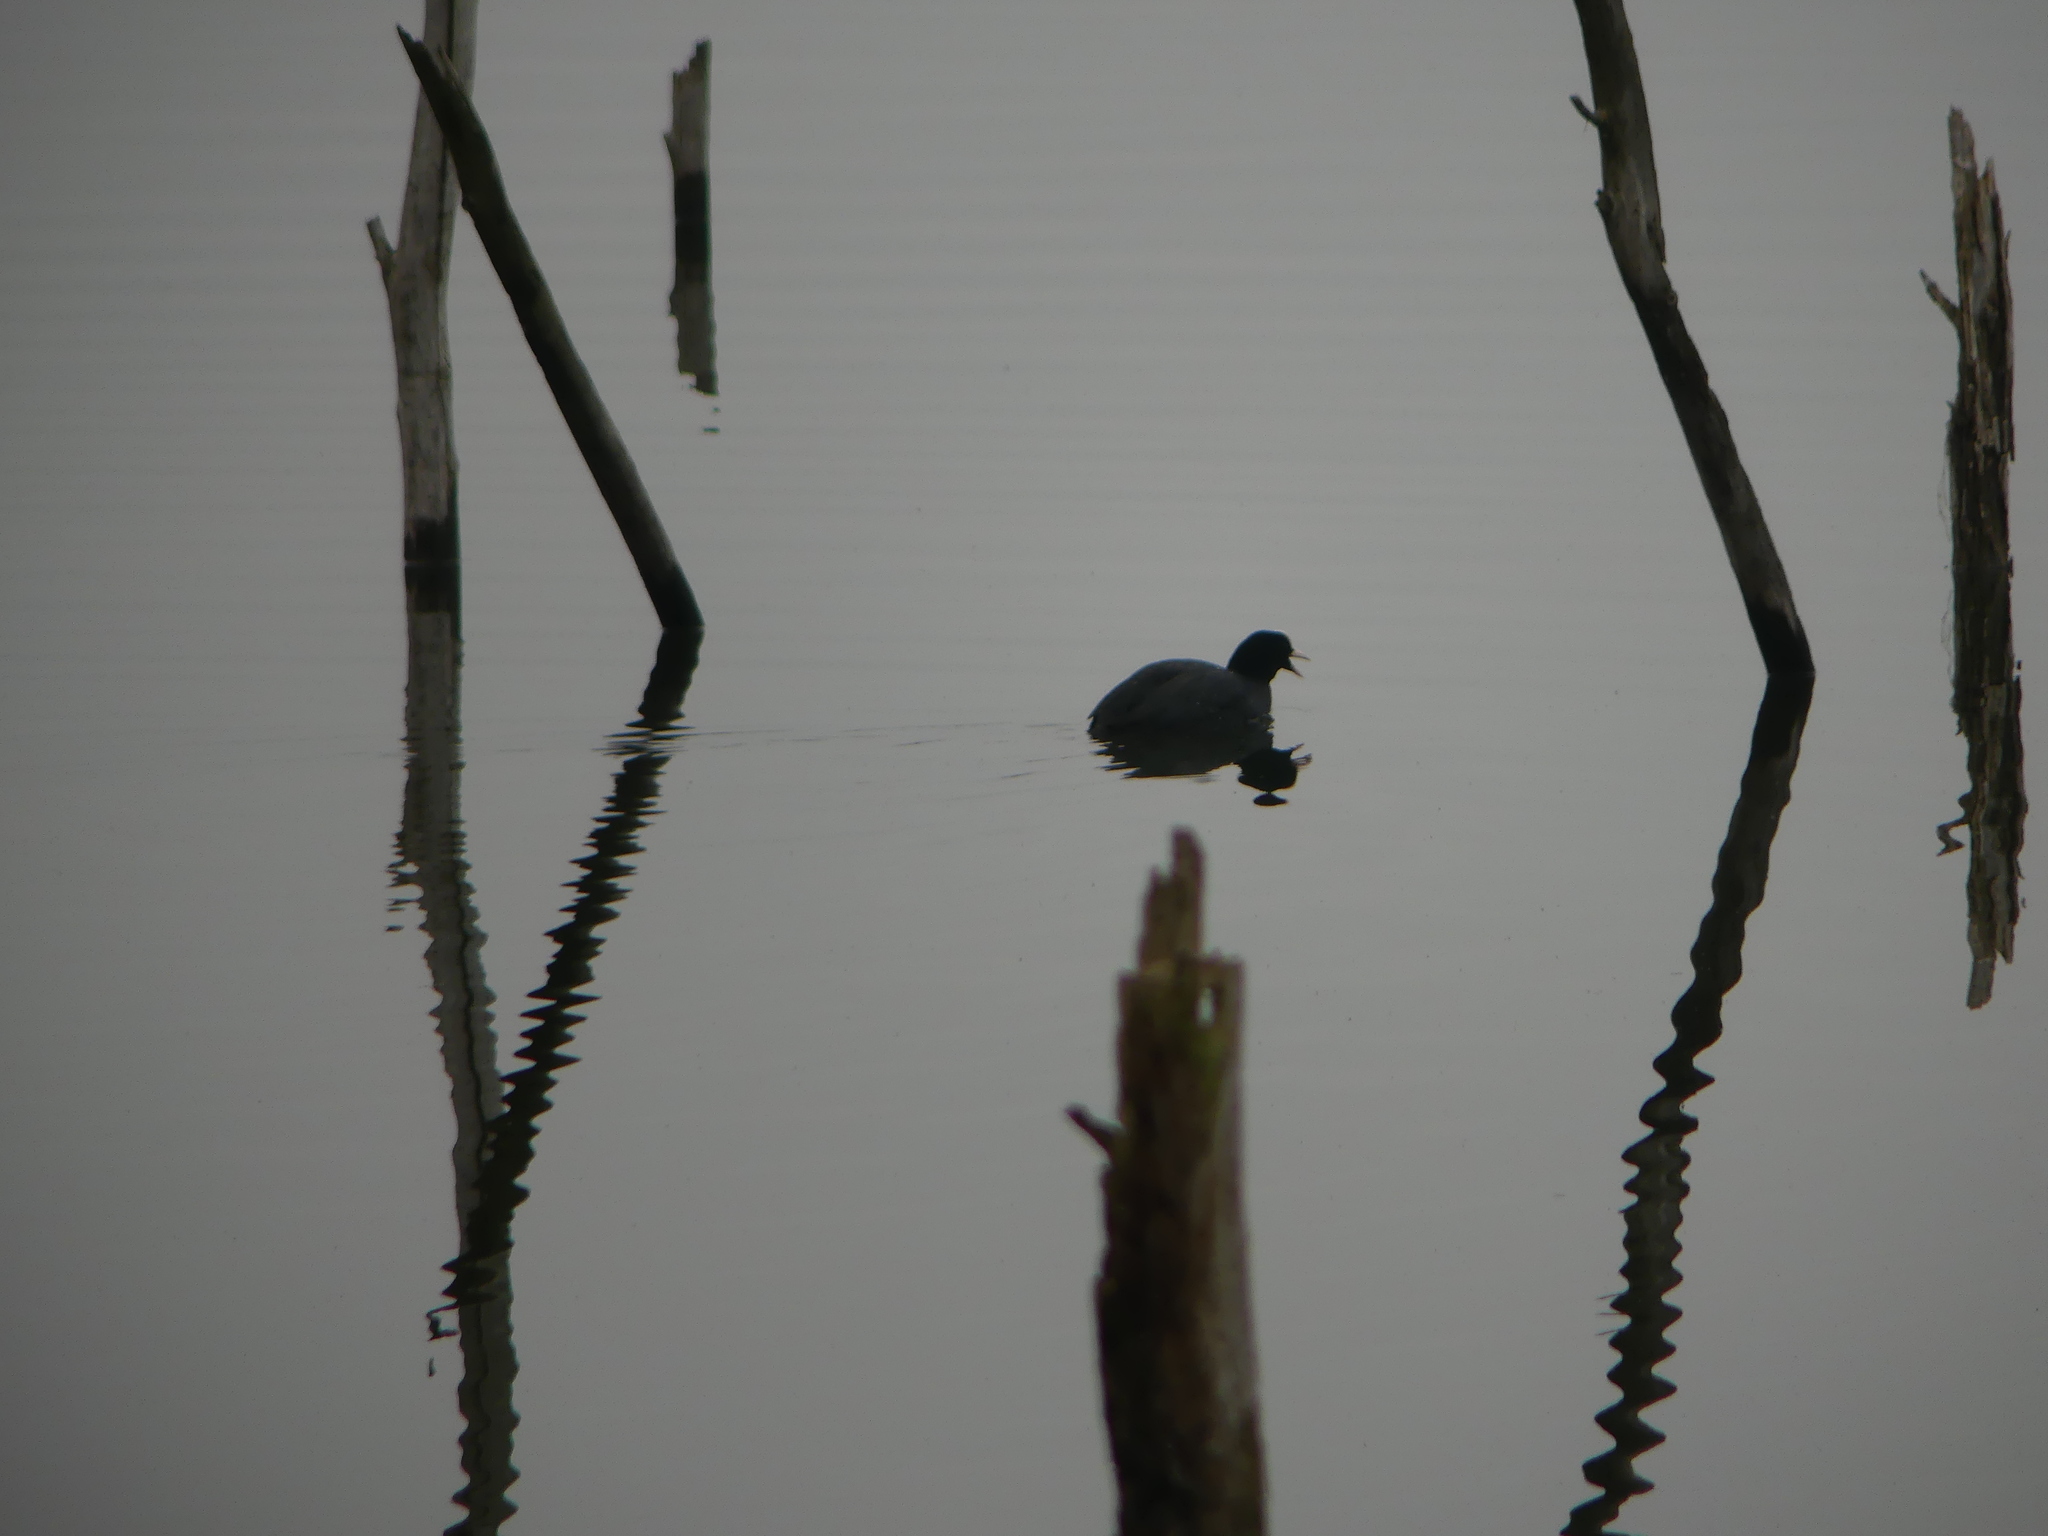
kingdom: Animalia
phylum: Chordata
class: Aves
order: Gruiformes
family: Rallidae
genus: Fulica
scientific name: Fulica atra
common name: Eurasian coot
